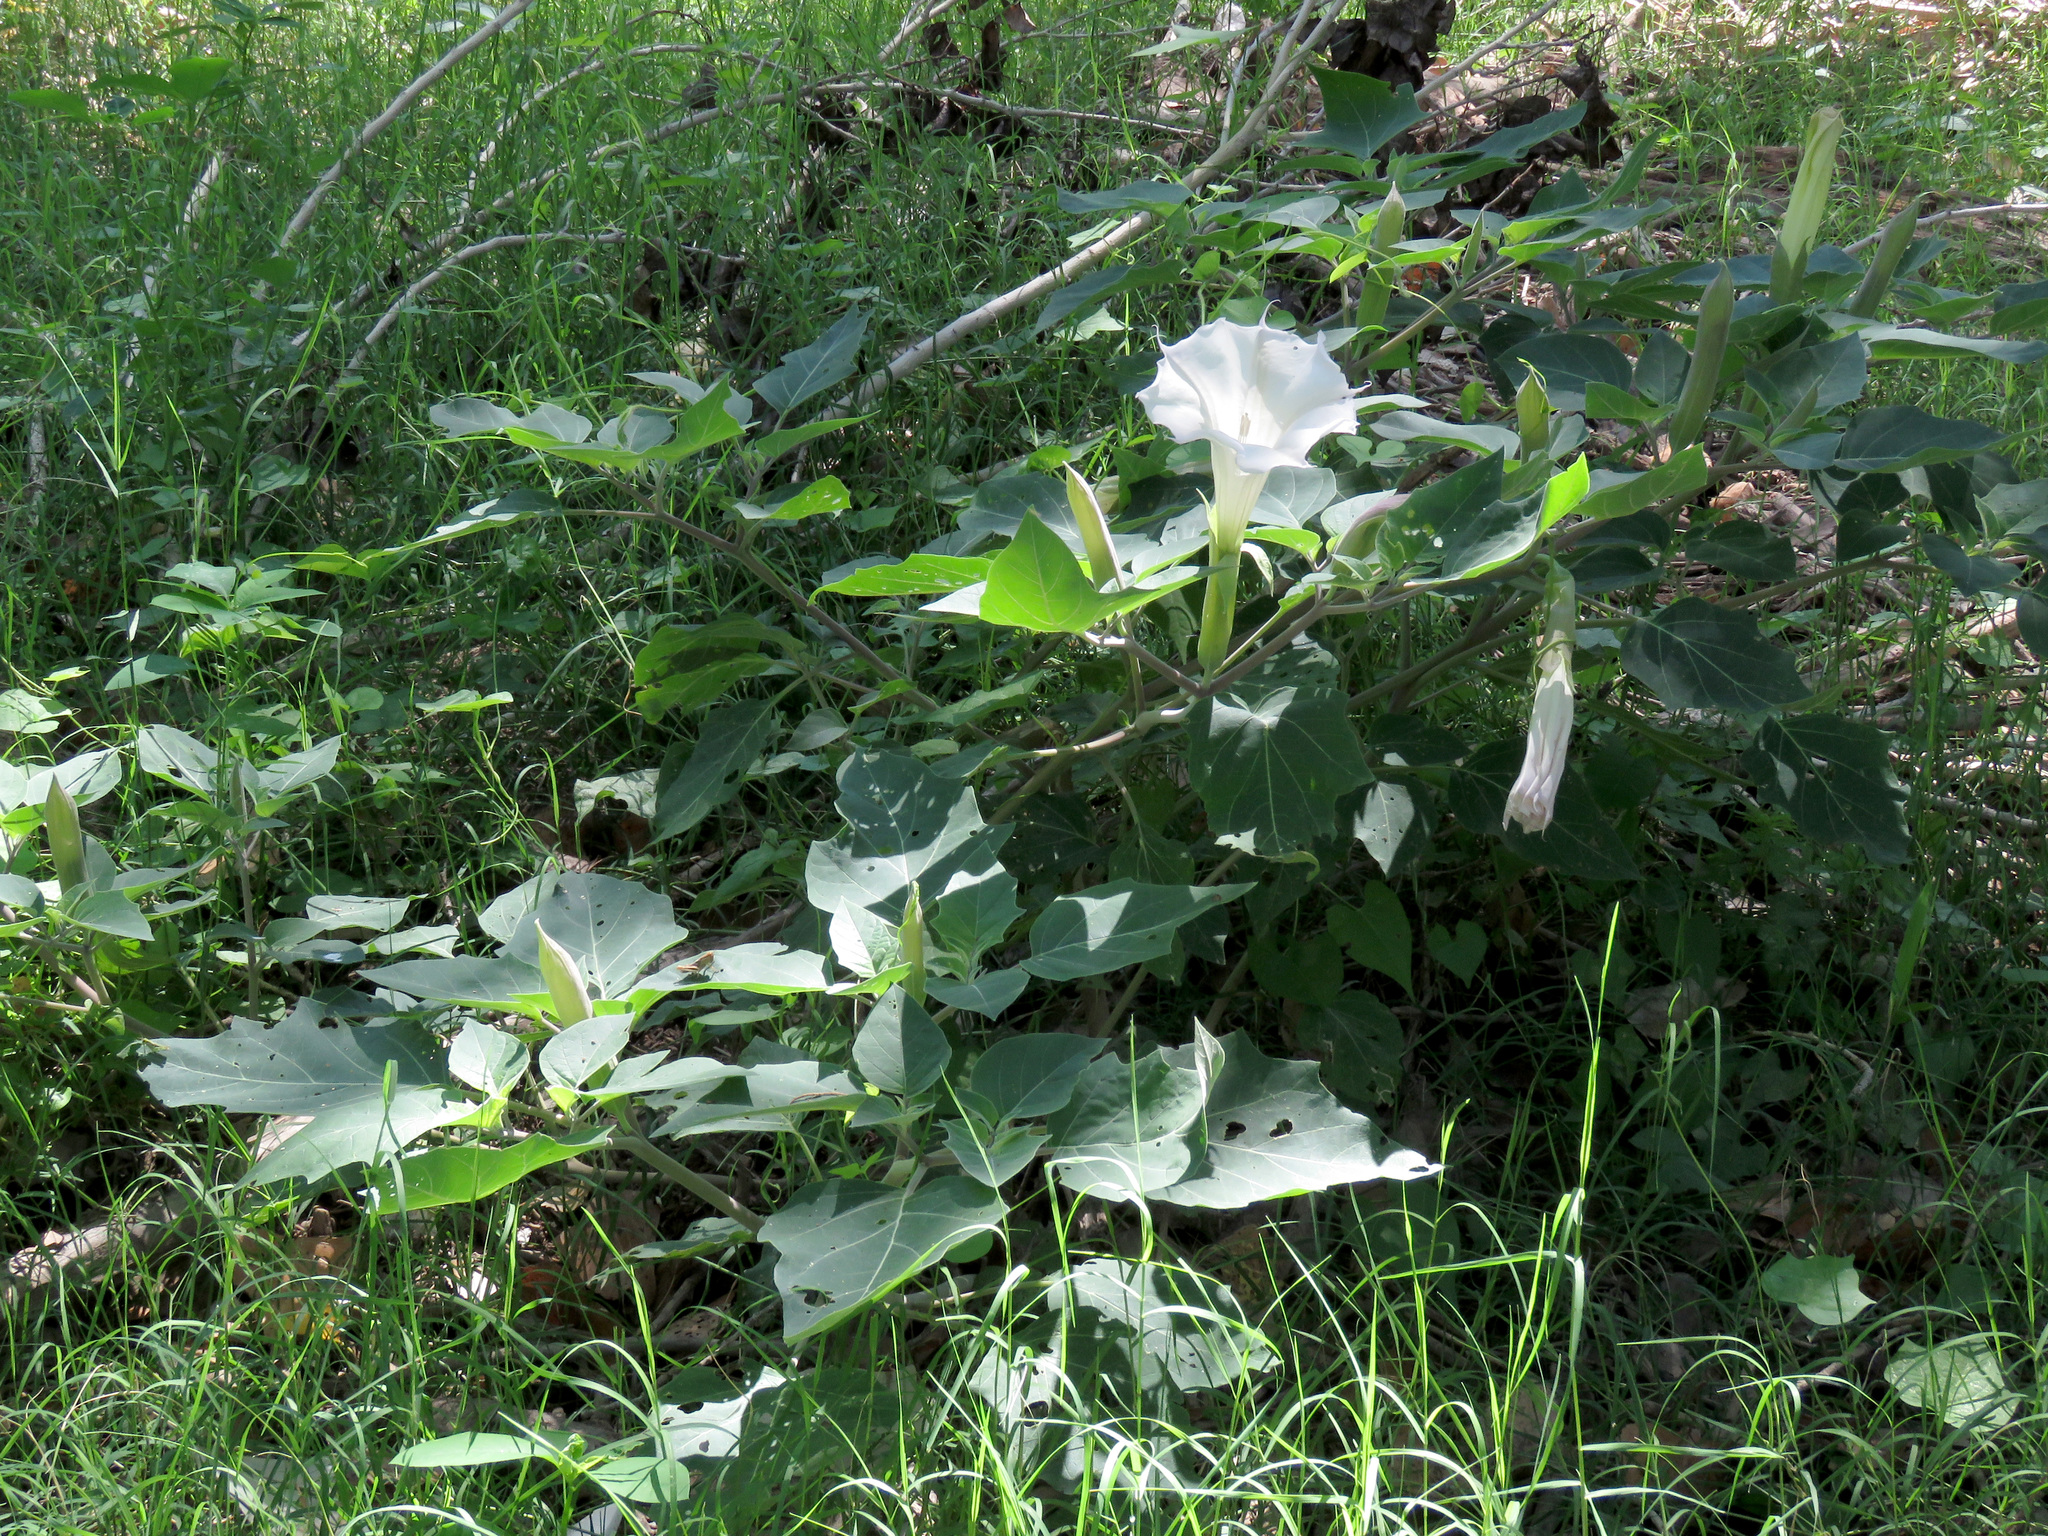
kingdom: Plantae
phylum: Tracheophyta
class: Magnoliopsida
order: Solanales
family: Solanaceae
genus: Datura
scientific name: Datura wrightii
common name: Sacred thorn-apple
